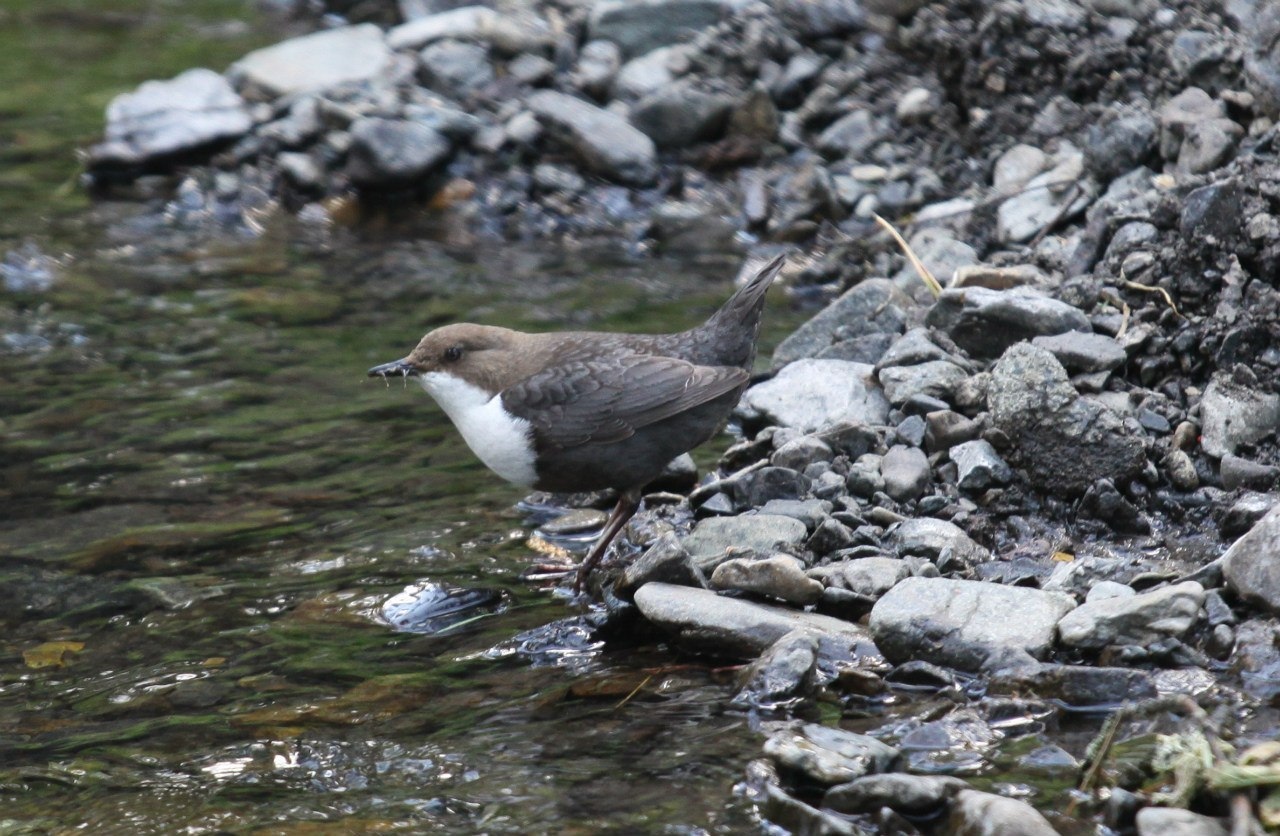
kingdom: Animalia
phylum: Chordata
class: Aves
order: Passeriformes
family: Cinclidae
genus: Cinclus
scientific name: Cinclus cinclus
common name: White-throated dipper
